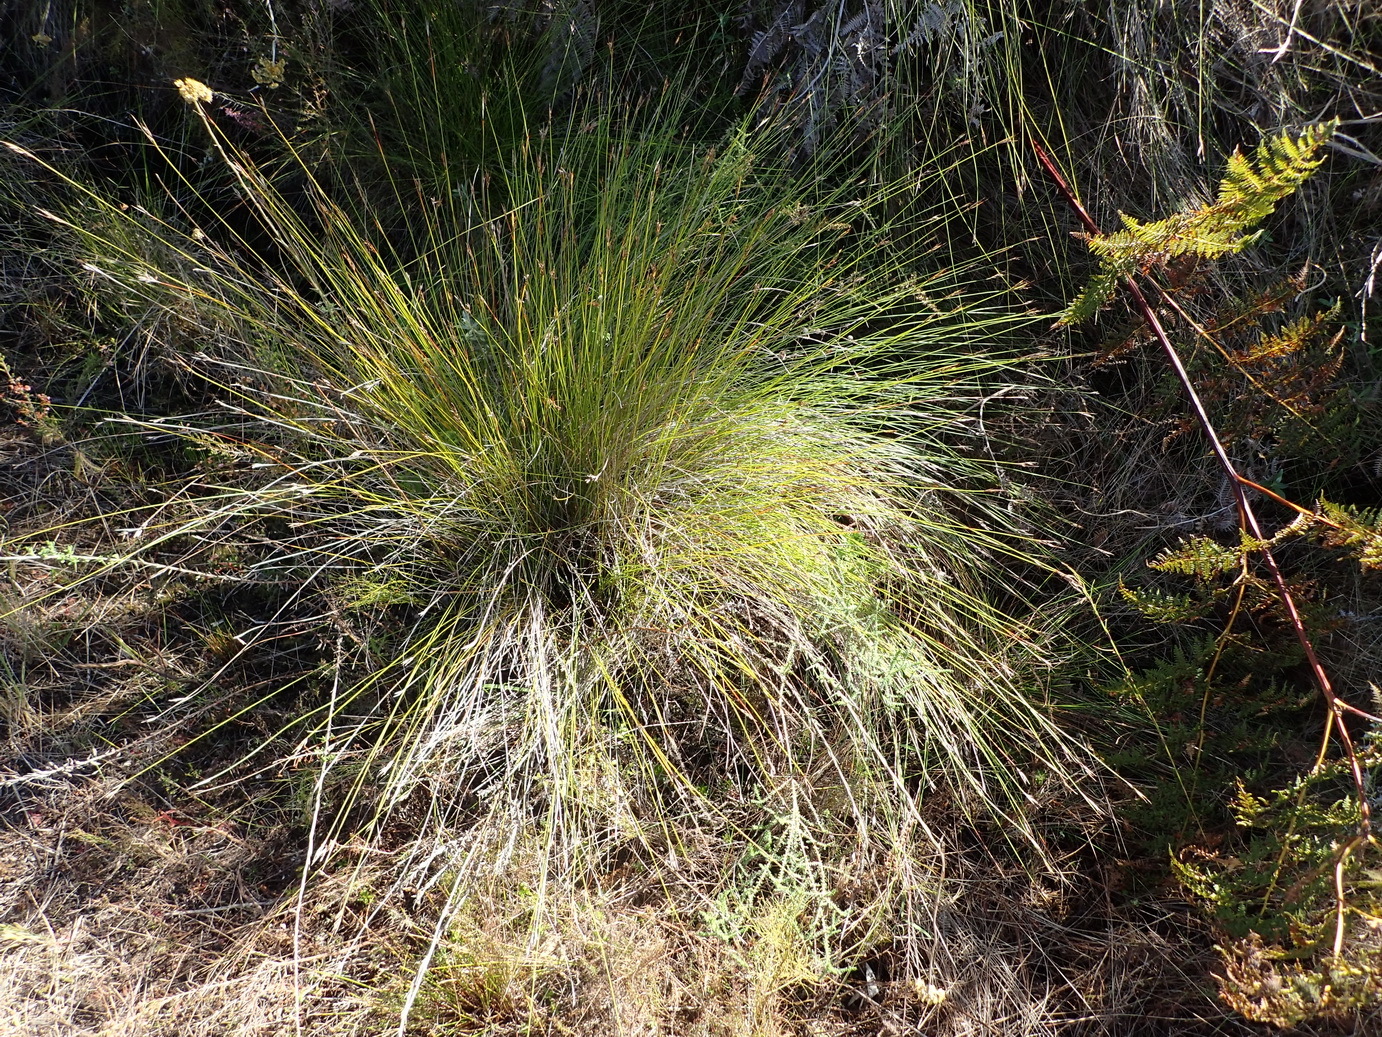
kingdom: Plantae
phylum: Tracheophyta
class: Liliopsida
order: Poales
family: Cyperaceae
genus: Schoenus
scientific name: Schoenus rigidus
